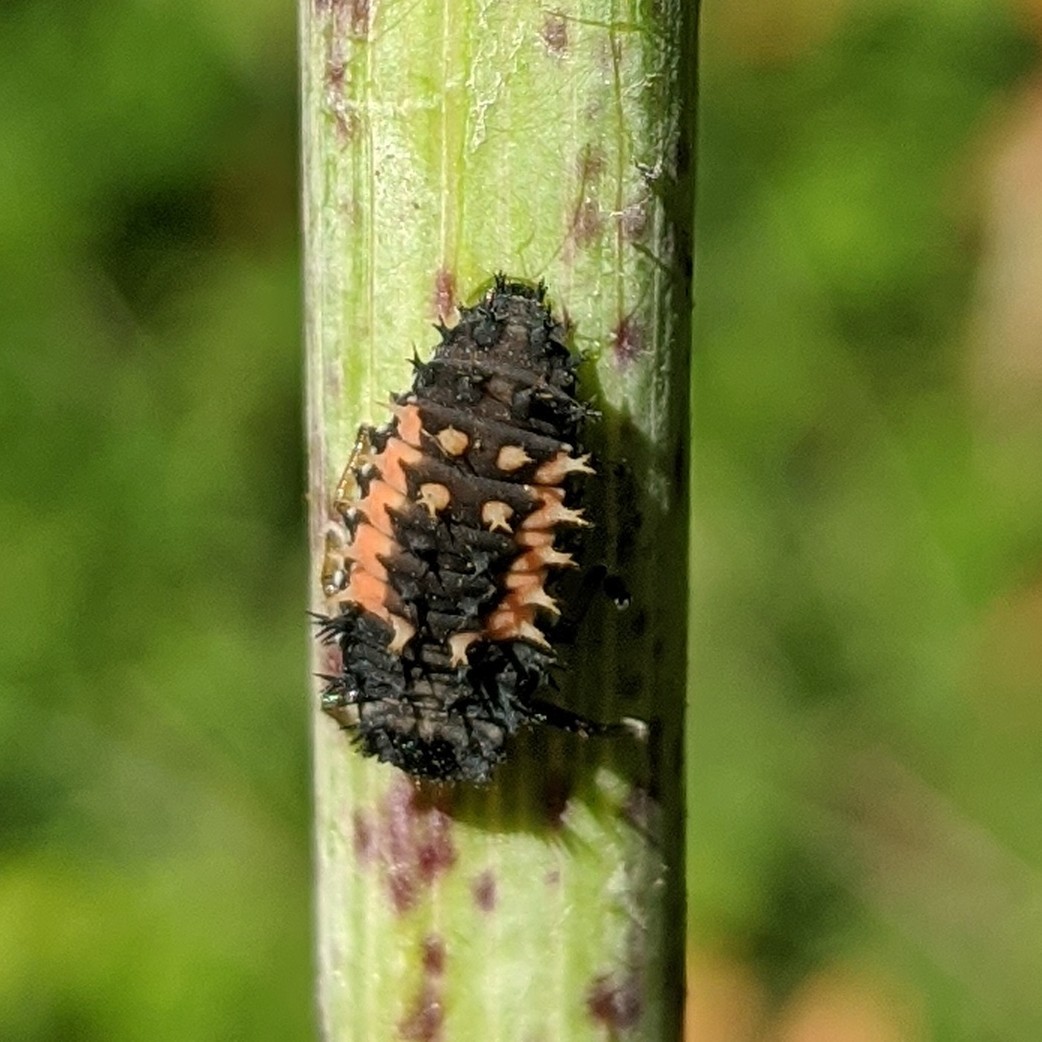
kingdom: Animalia
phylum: Arthropoda
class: Insecta
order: Coleoptera
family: Coccinellidae
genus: Harmonia
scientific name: Harmonia axyridis
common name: Harlequin ladybird
